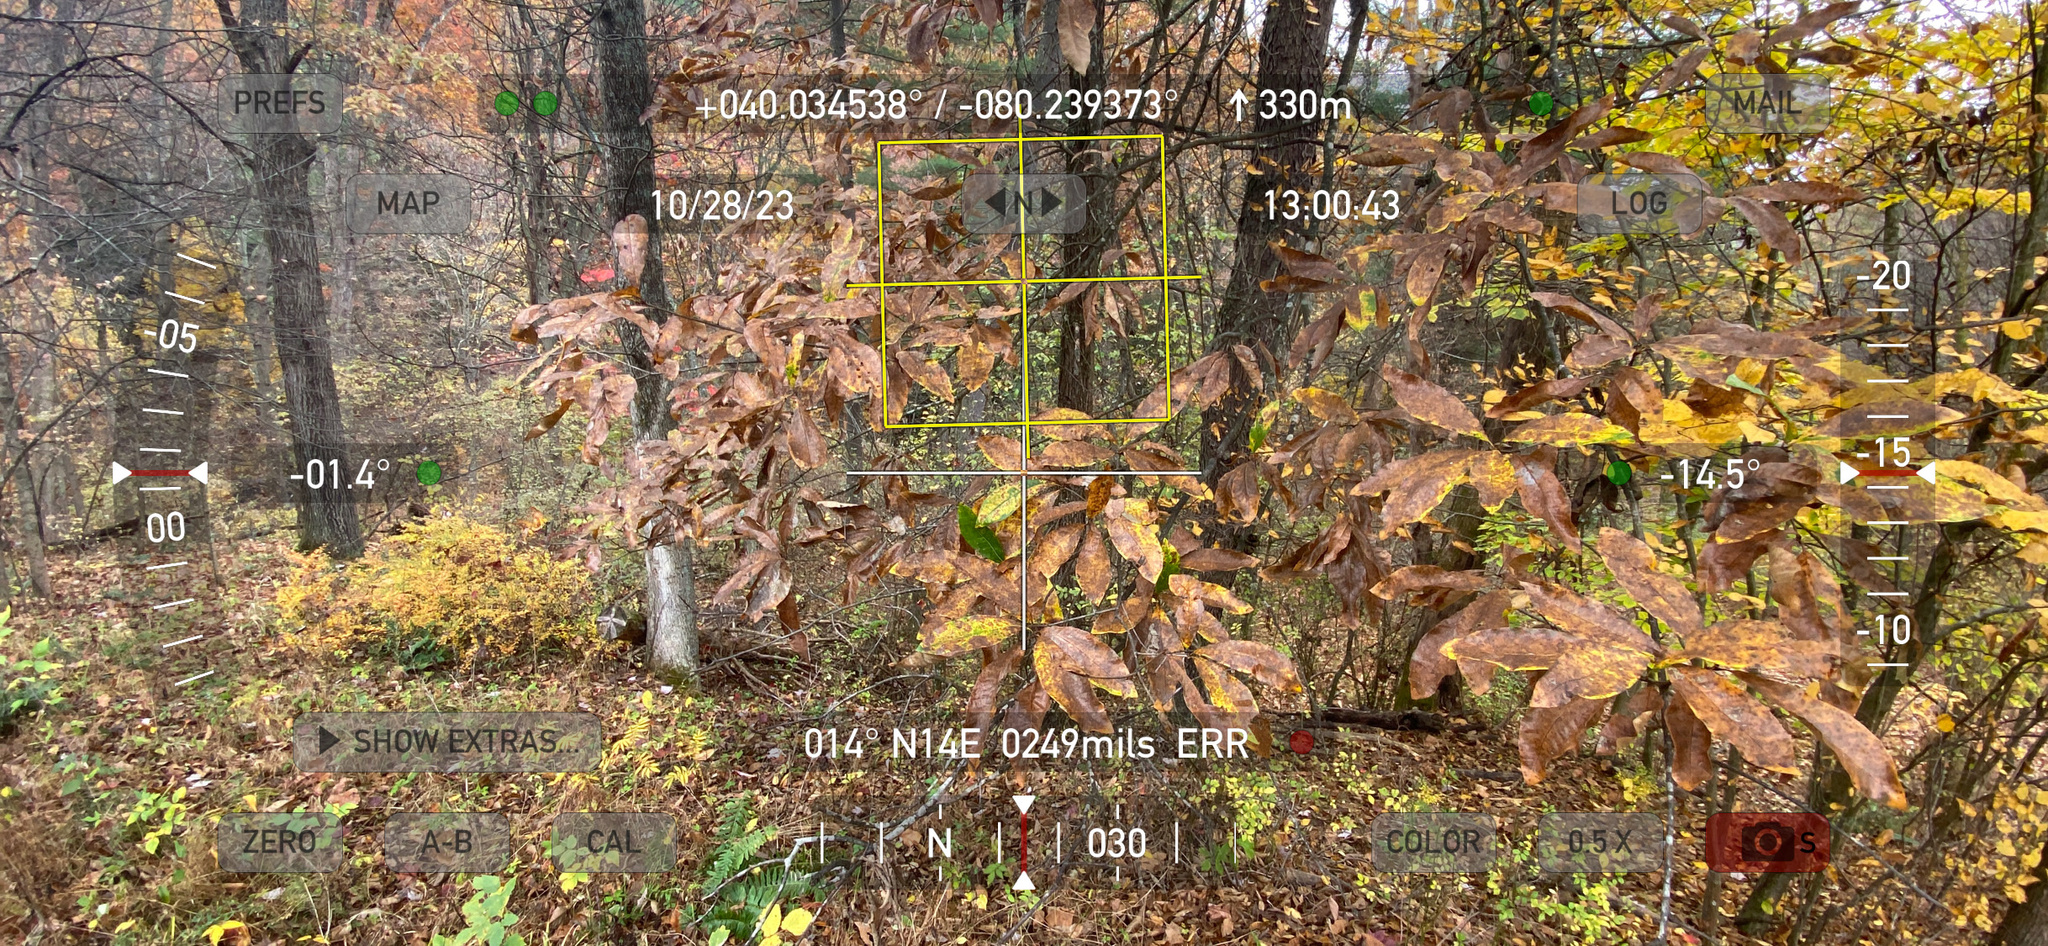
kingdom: Plantae
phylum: Tracheophyta
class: Magnoliopsida
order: Fagales
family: Fagaceae
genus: Quercus
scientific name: Quercus imbricaria
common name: Shingle oak
